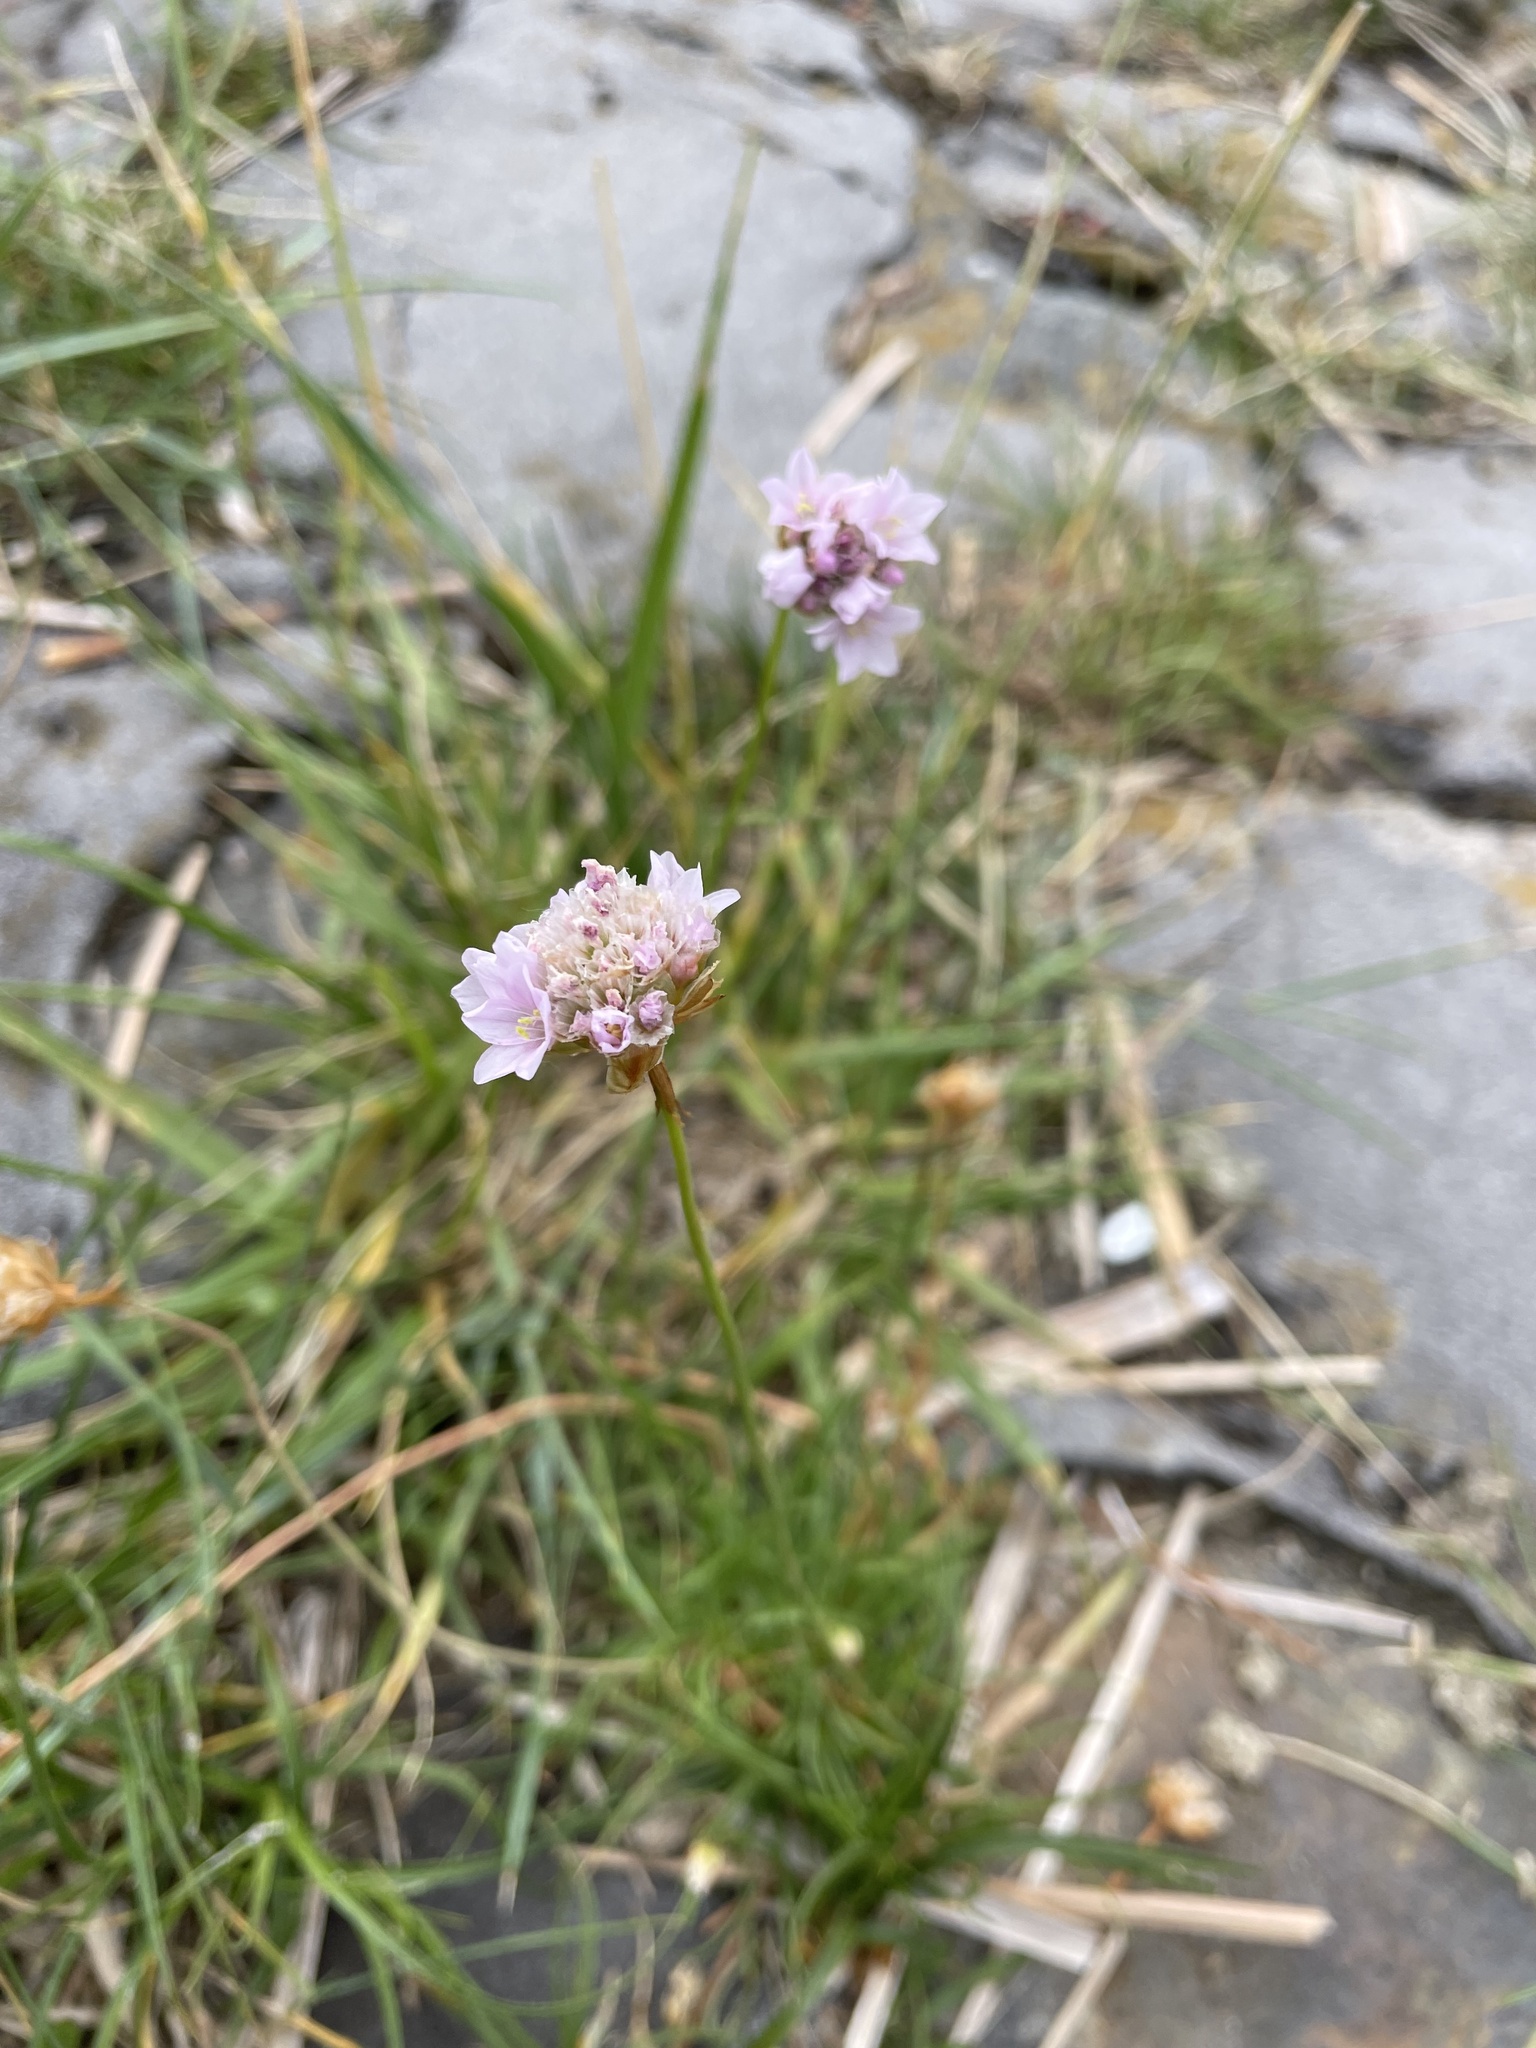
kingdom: Plantae
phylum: Tracheophyta
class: Magnoliopsida
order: Caryophyllales
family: Plumbaginaceae
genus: Armeria
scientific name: Armeria maritima
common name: Thrift
